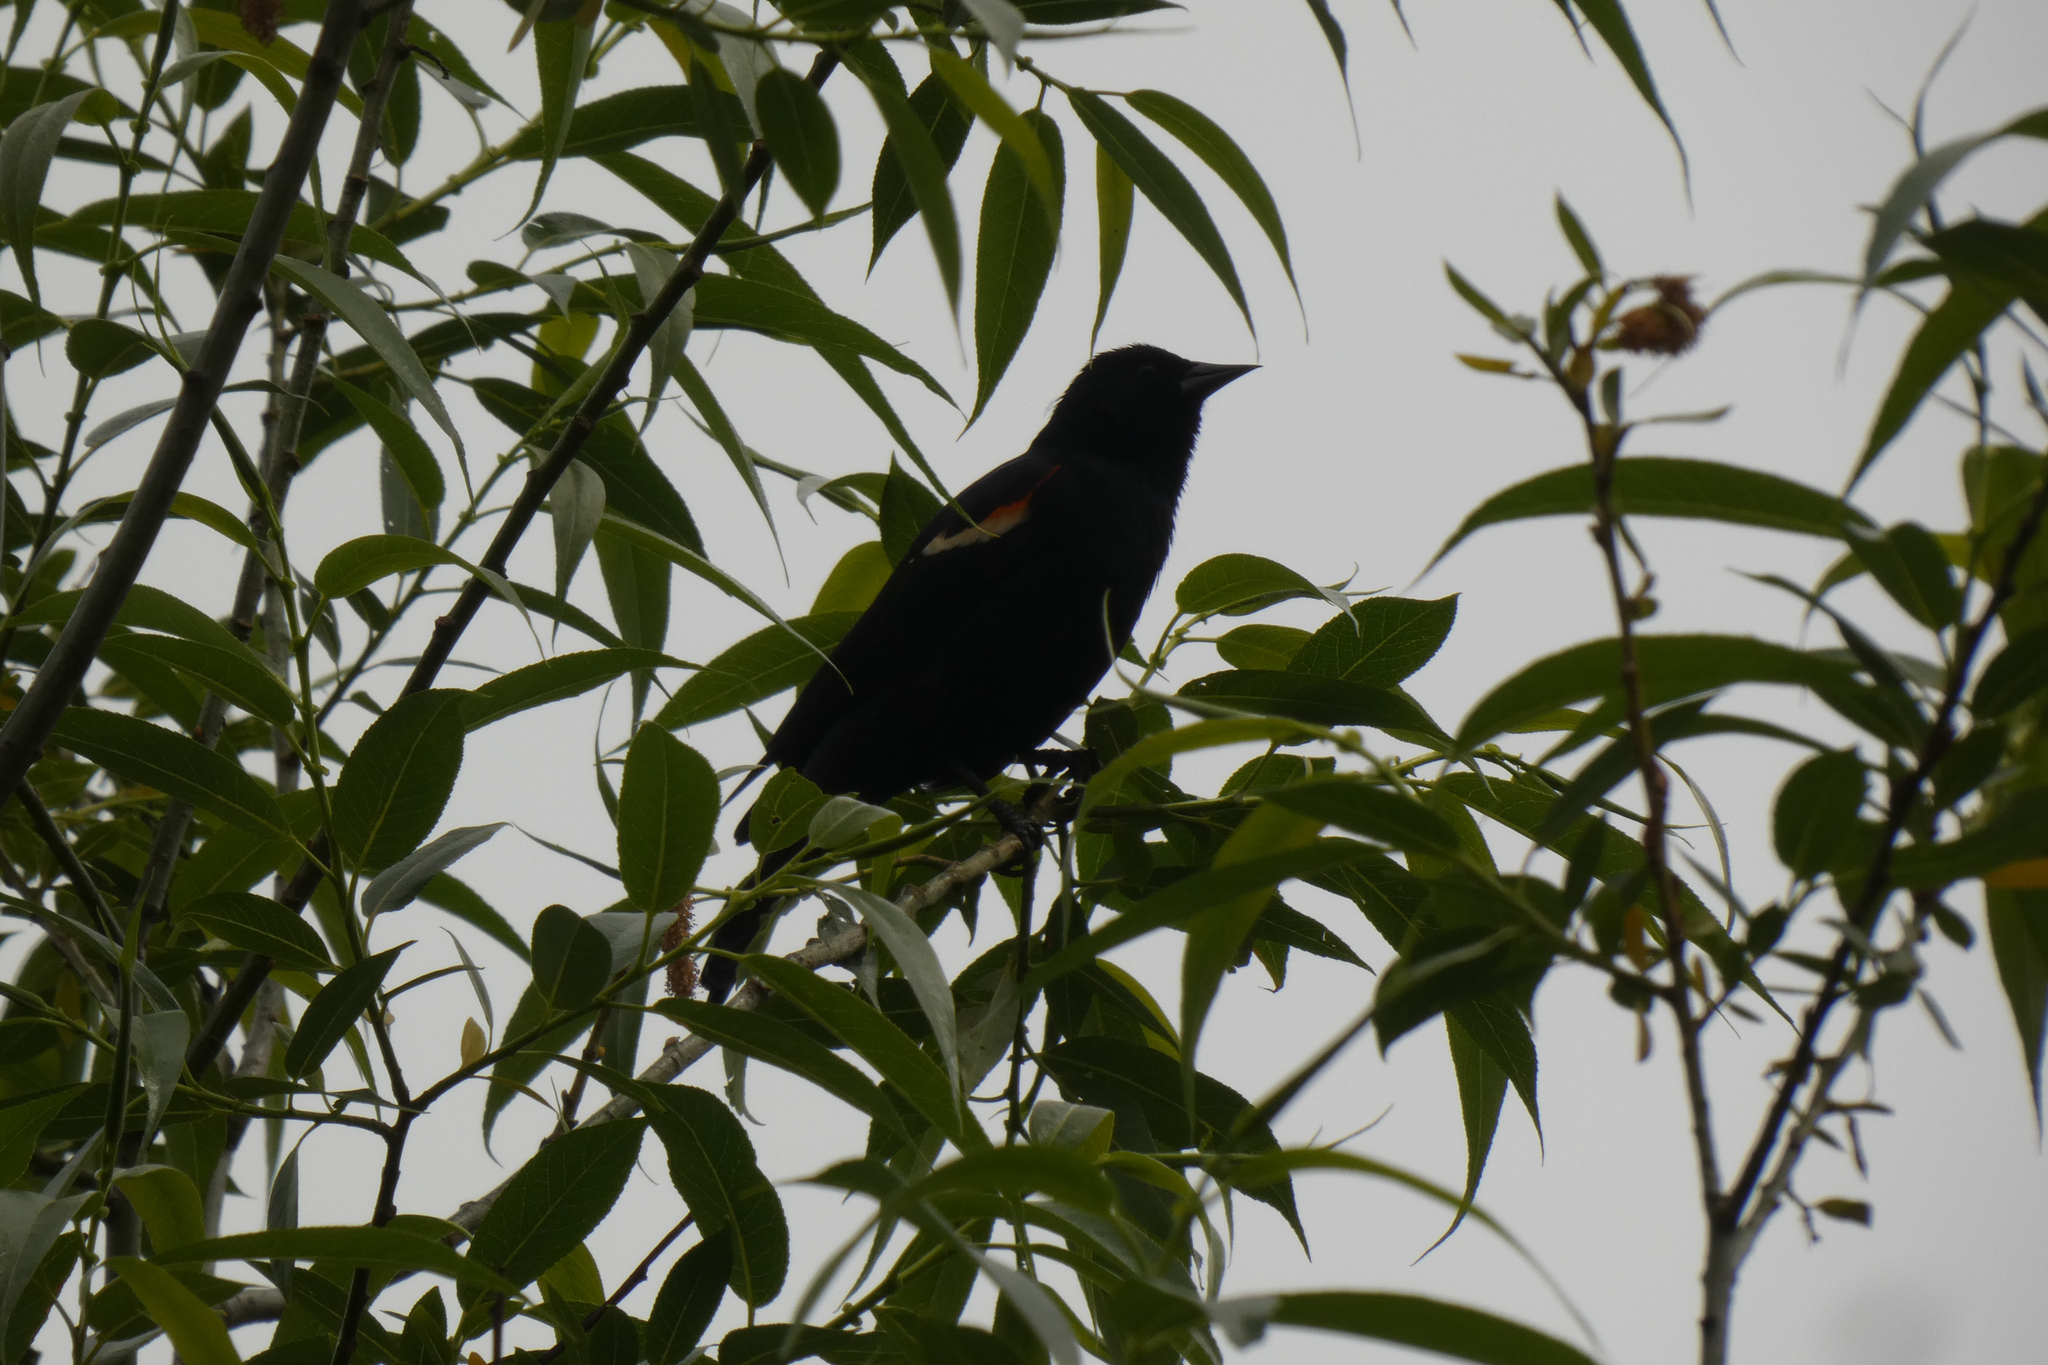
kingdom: Animalia
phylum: Chordata
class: Aves
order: Passeriformes
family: Icteridae
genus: Agelaius
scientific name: Agelaius phoeniceus
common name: Red-winged blackbird
